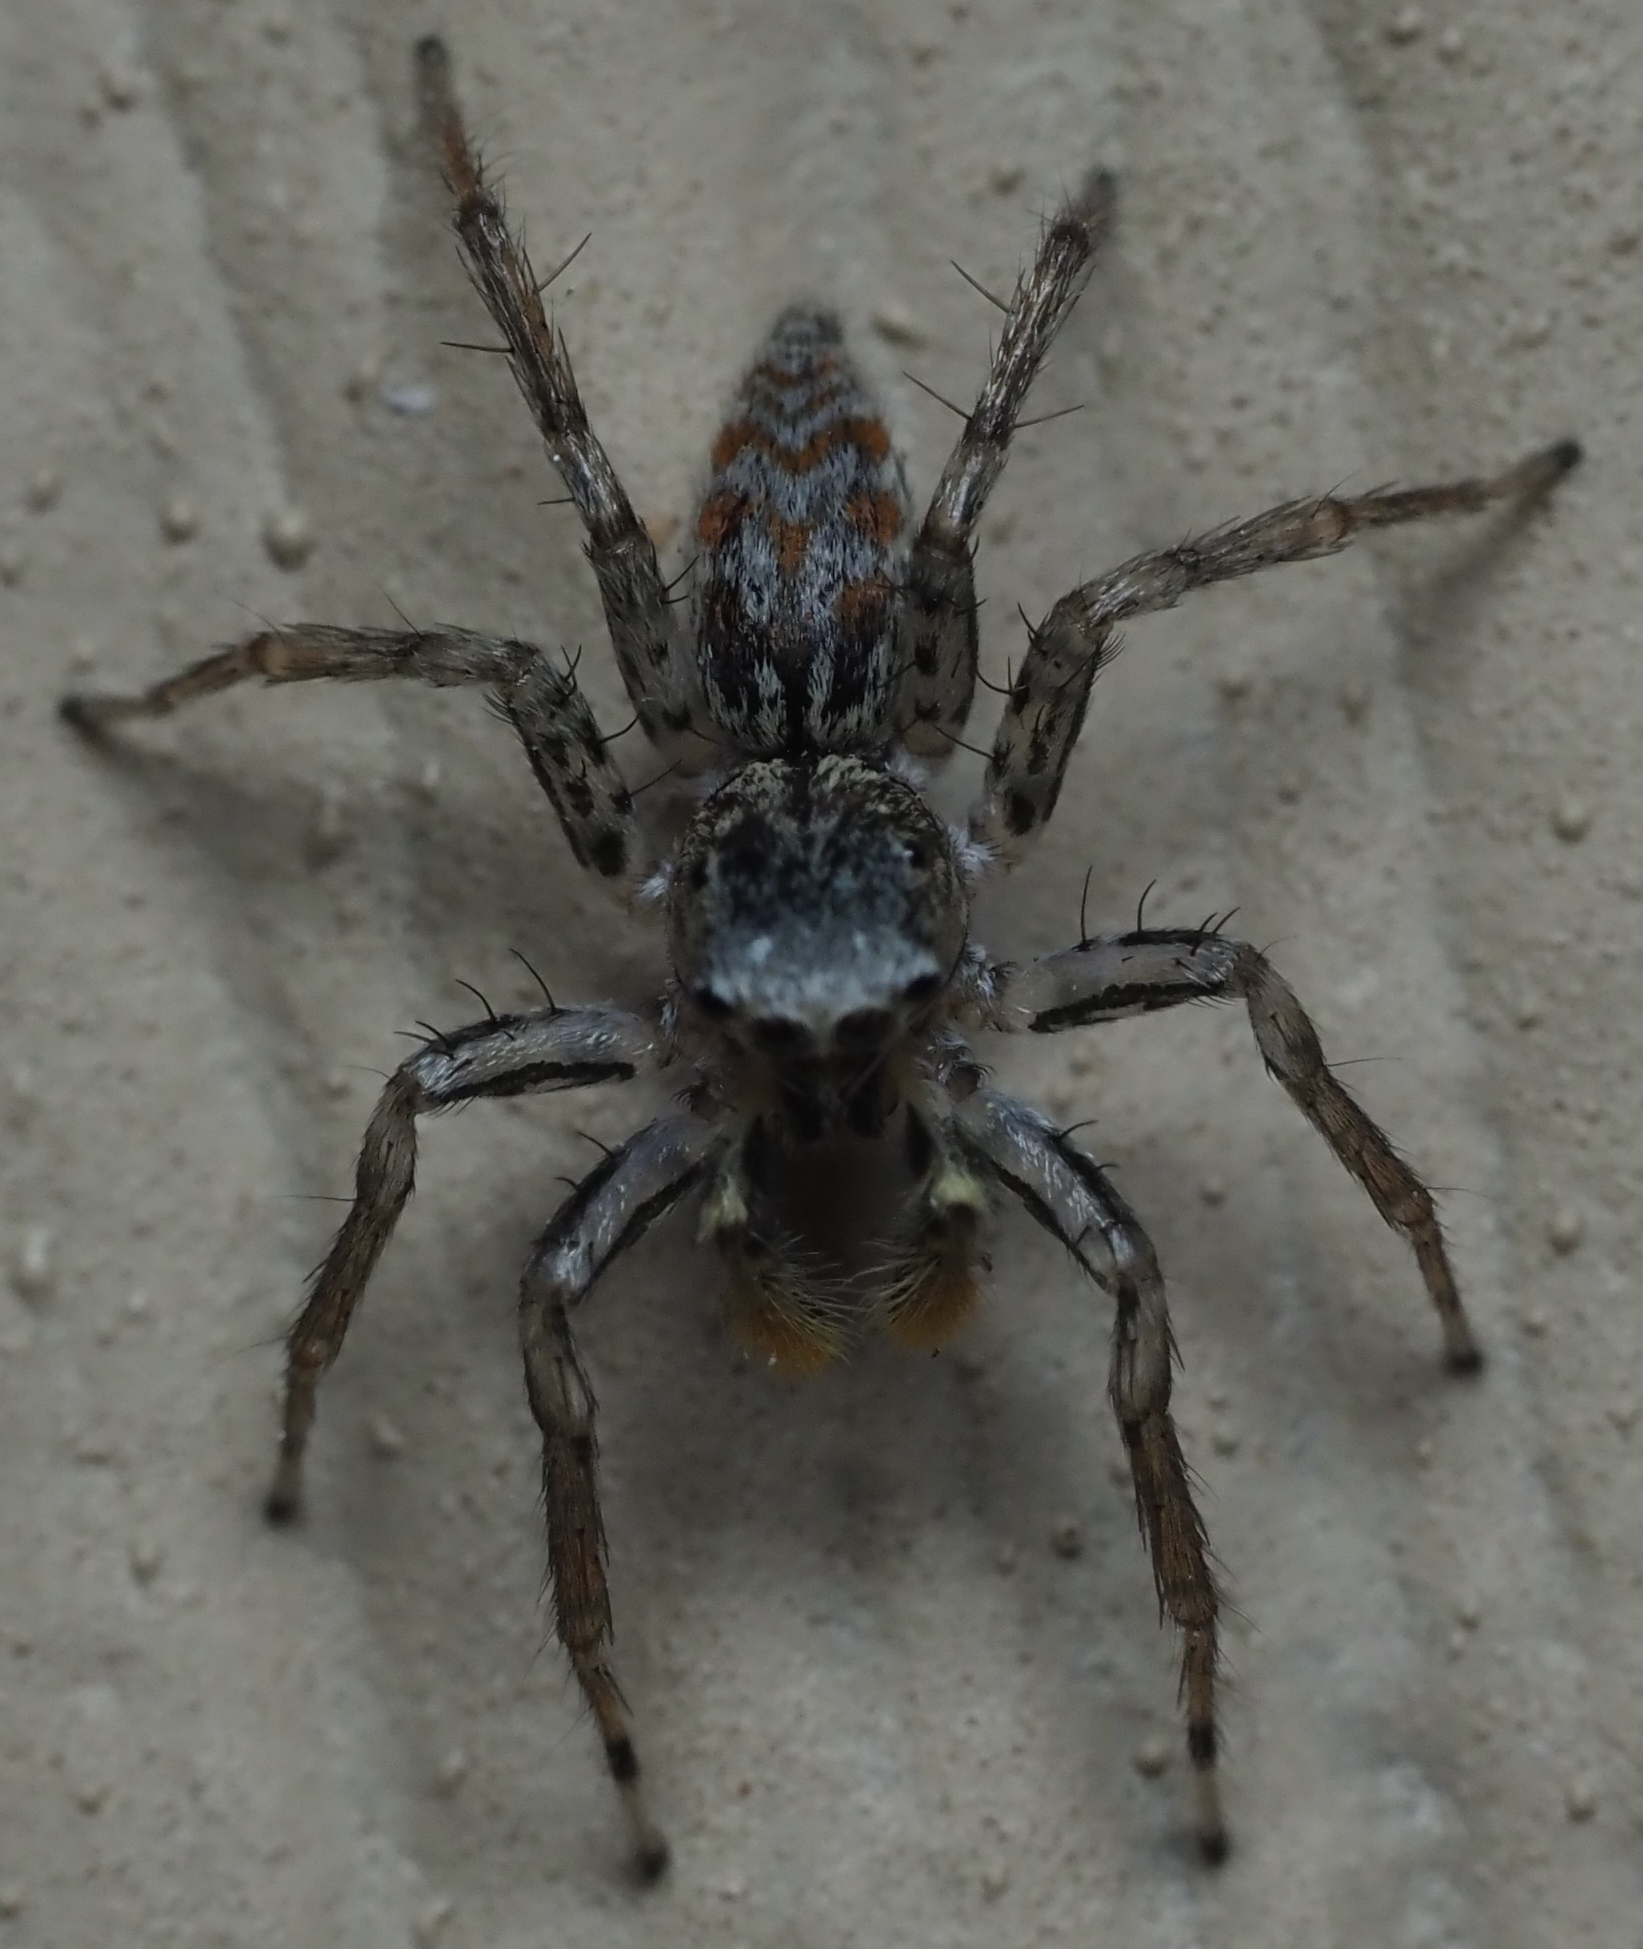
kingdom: Animalia
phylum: Arthropoda
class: Arachnida
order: Araneae
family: Salticidae
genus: Maevia
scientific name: Maevia inclemens
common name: Dimorphic jumper
